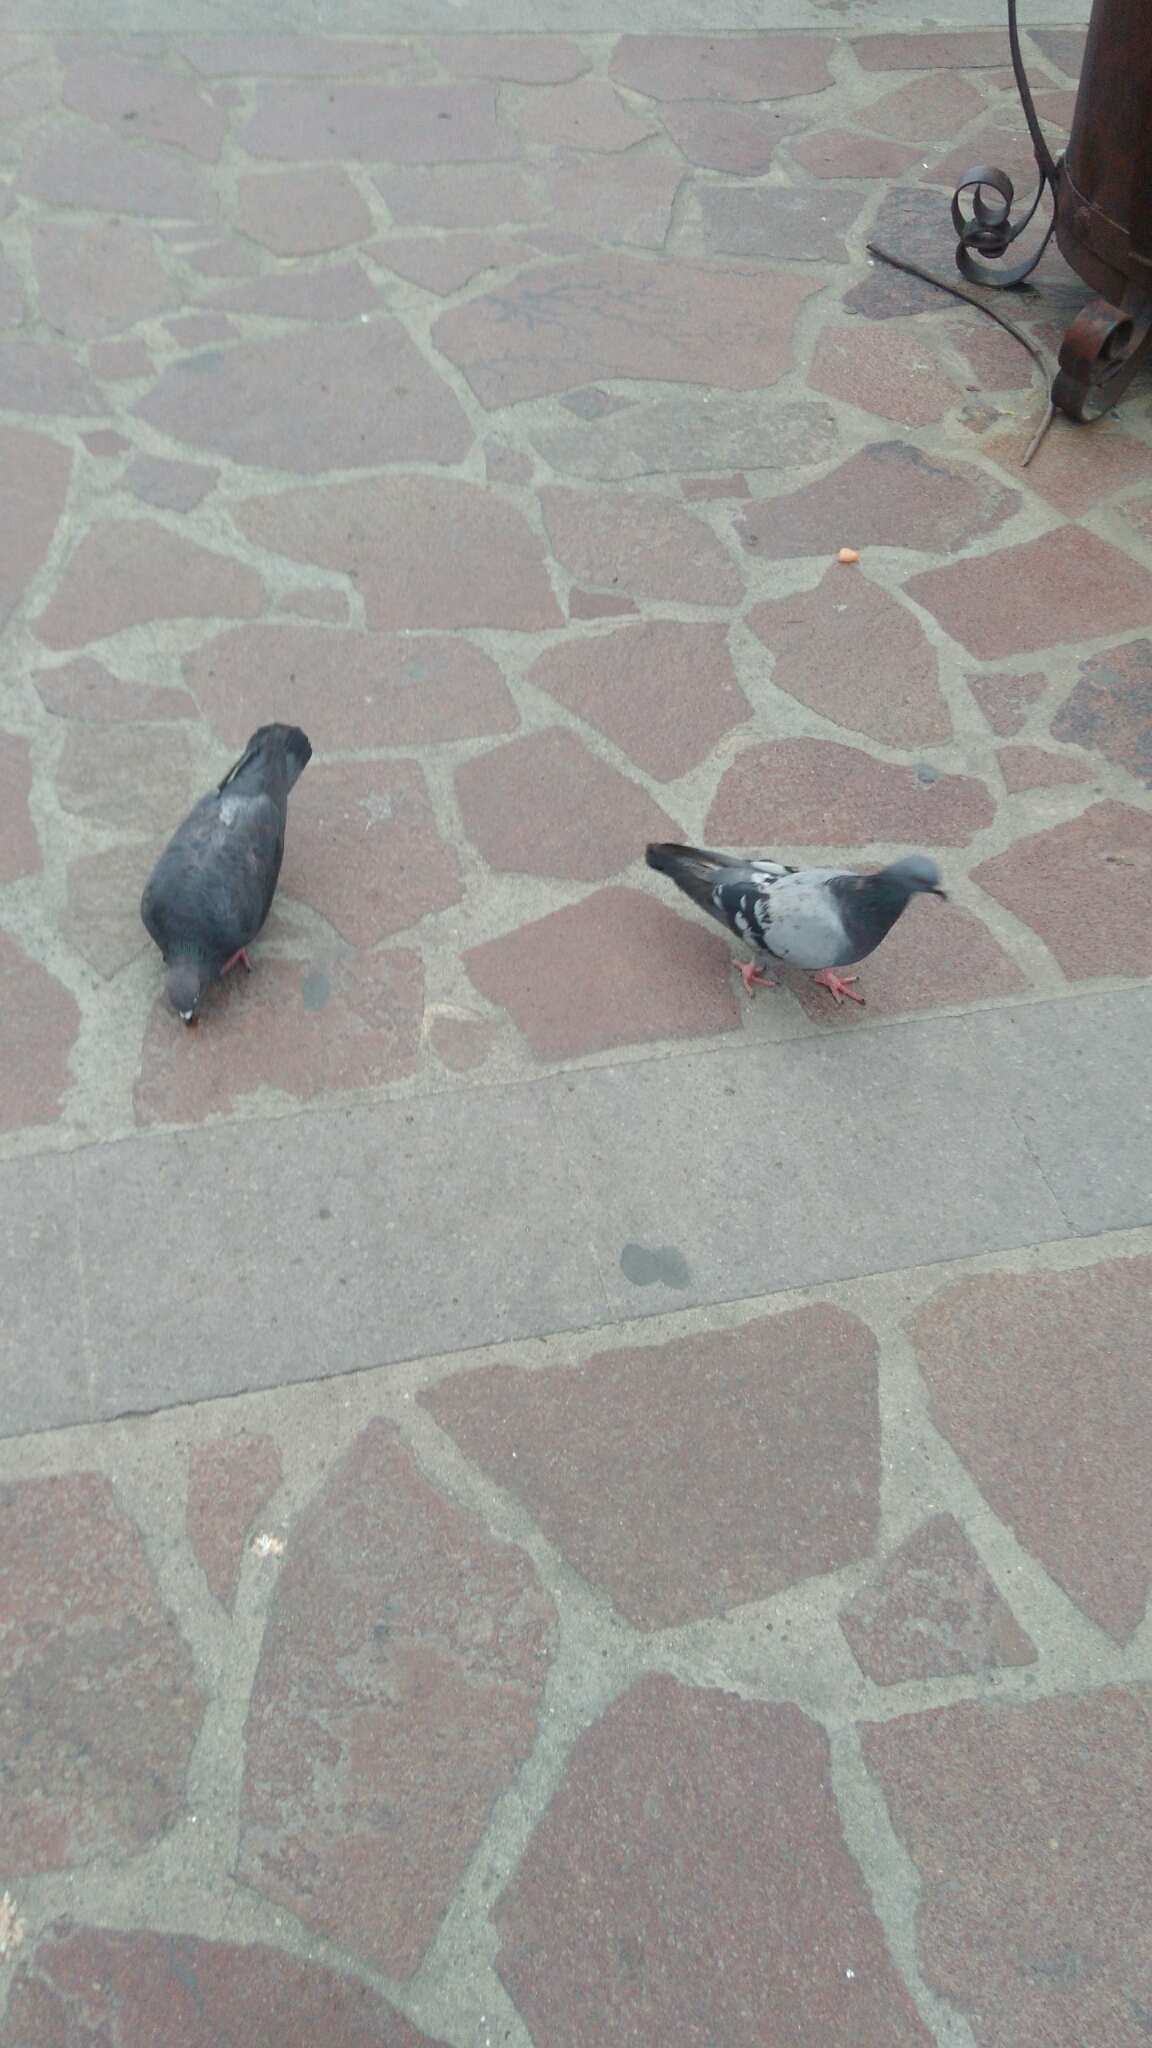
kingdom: Animalia
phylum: Chordata
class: Aves
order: Columbiformes
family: Columbidae
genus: Columba
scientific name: Columba livia
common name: Rock pigeon
